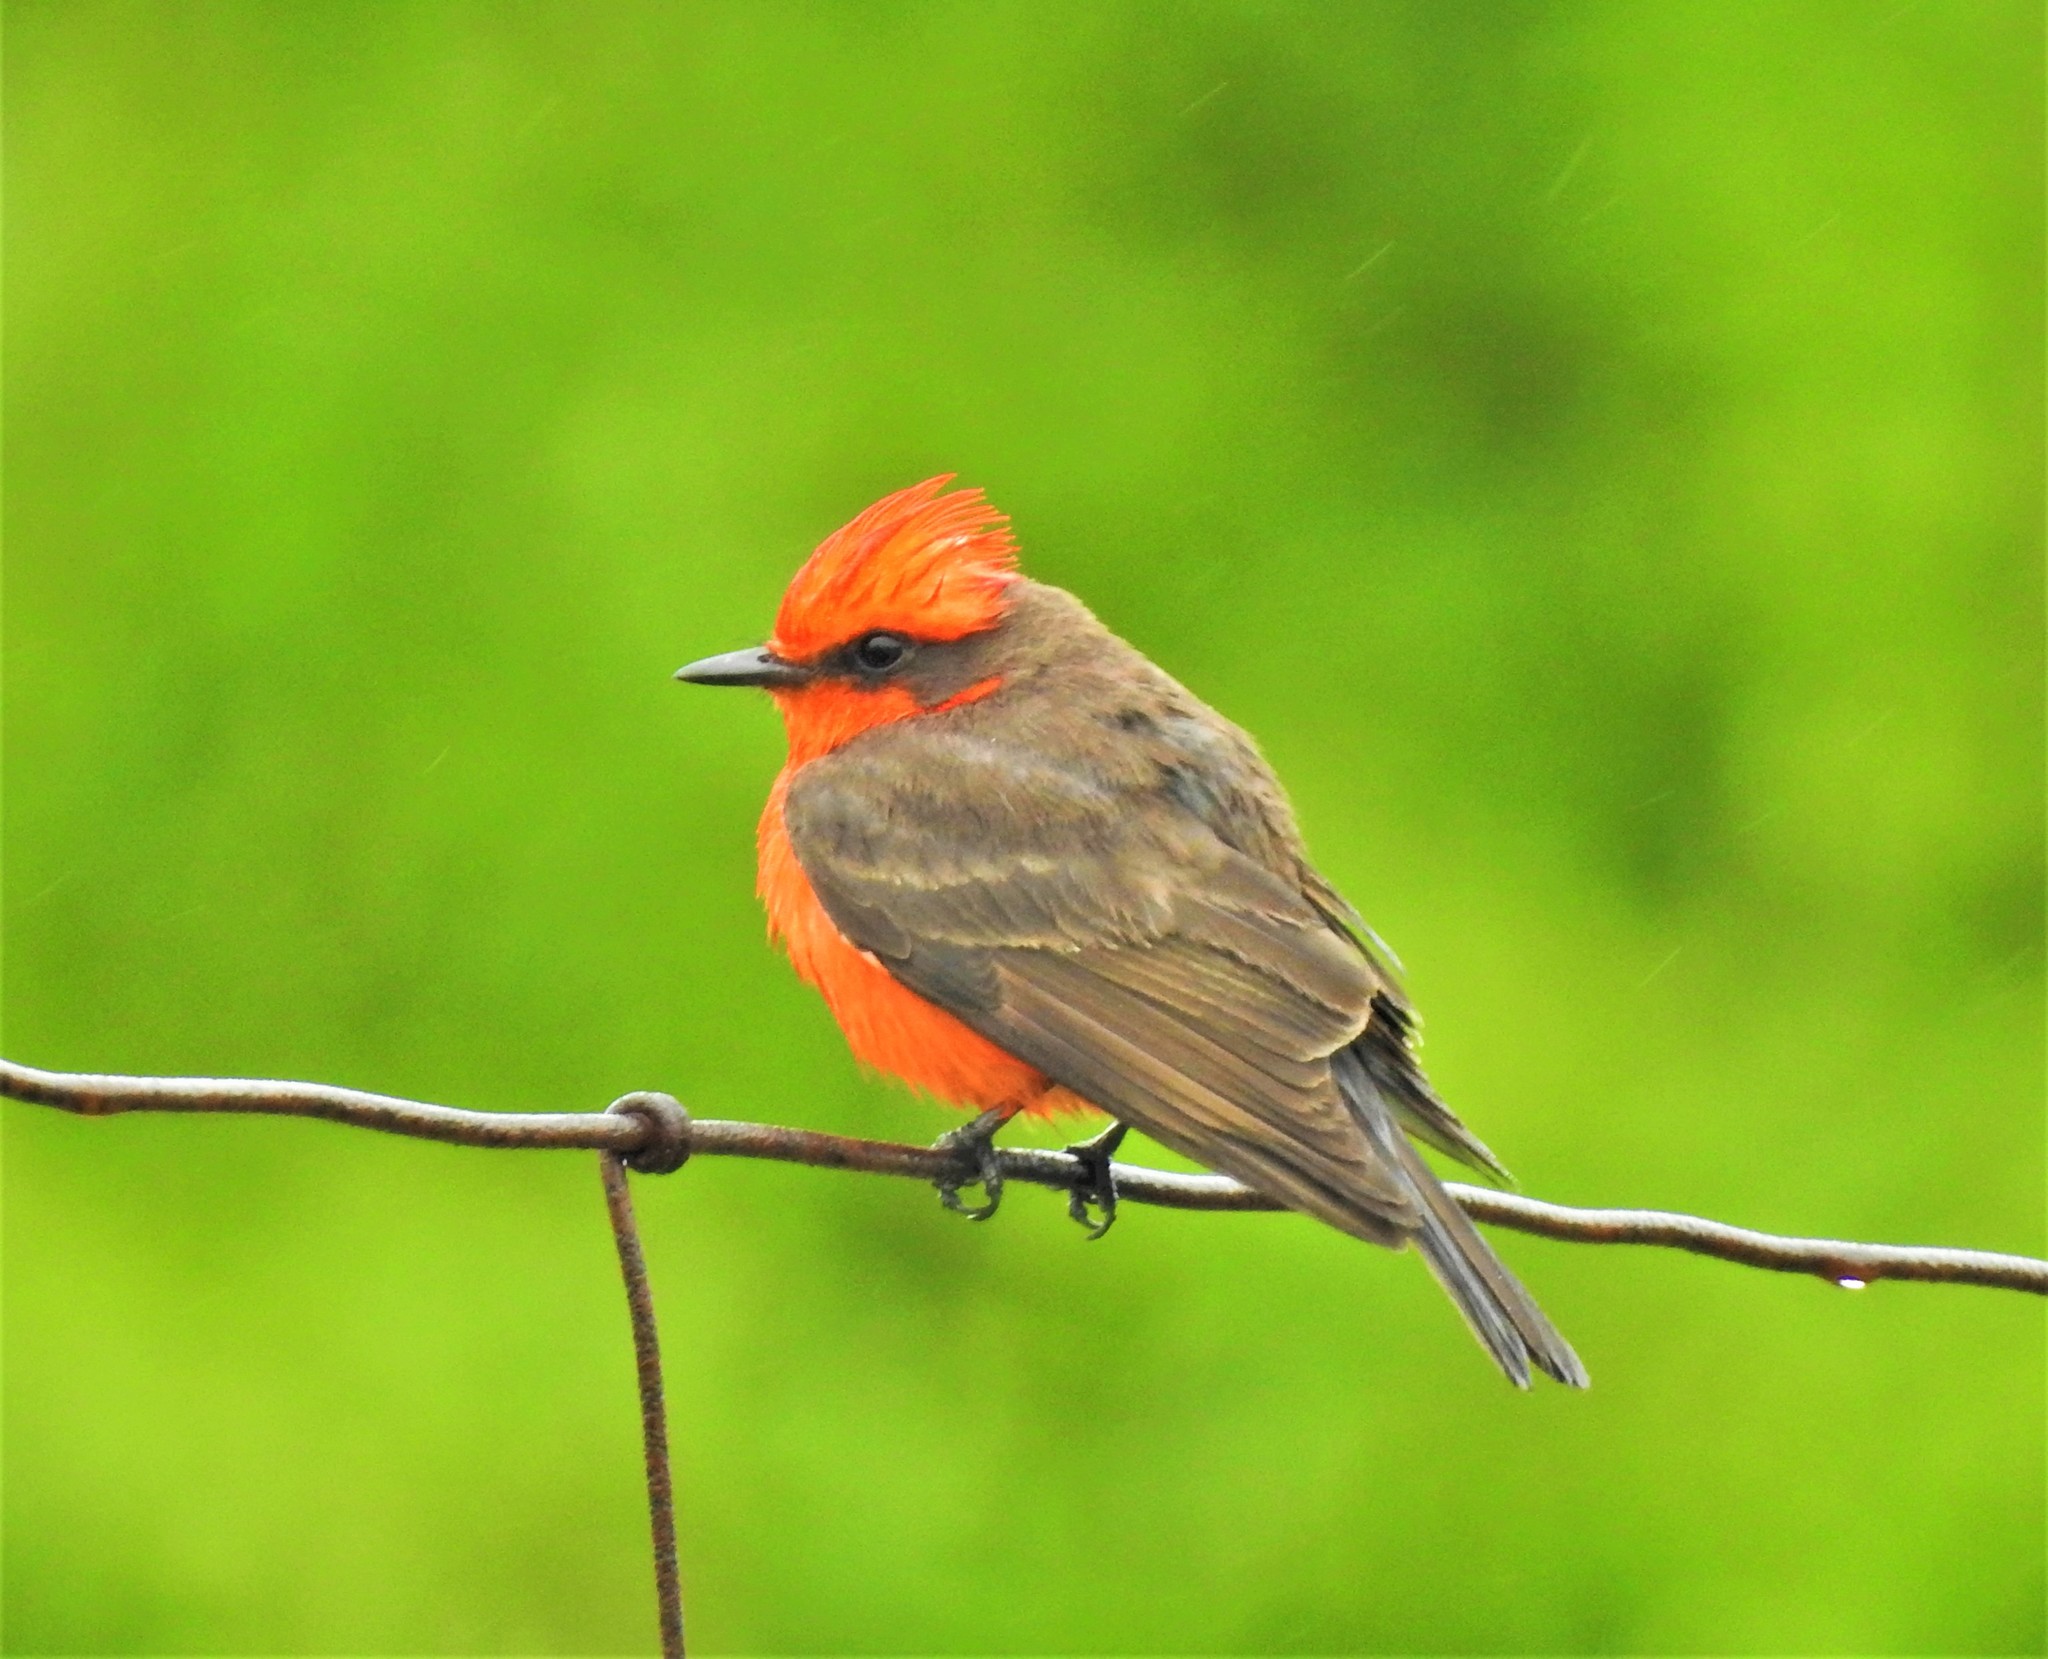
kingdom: Animalia
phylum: Chordata
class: Aves
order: Passeriformes
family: Tyrannidae
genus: Pyrocephalus
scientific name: Pyrocephalus rubinus
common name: Vermilion flycatcher
